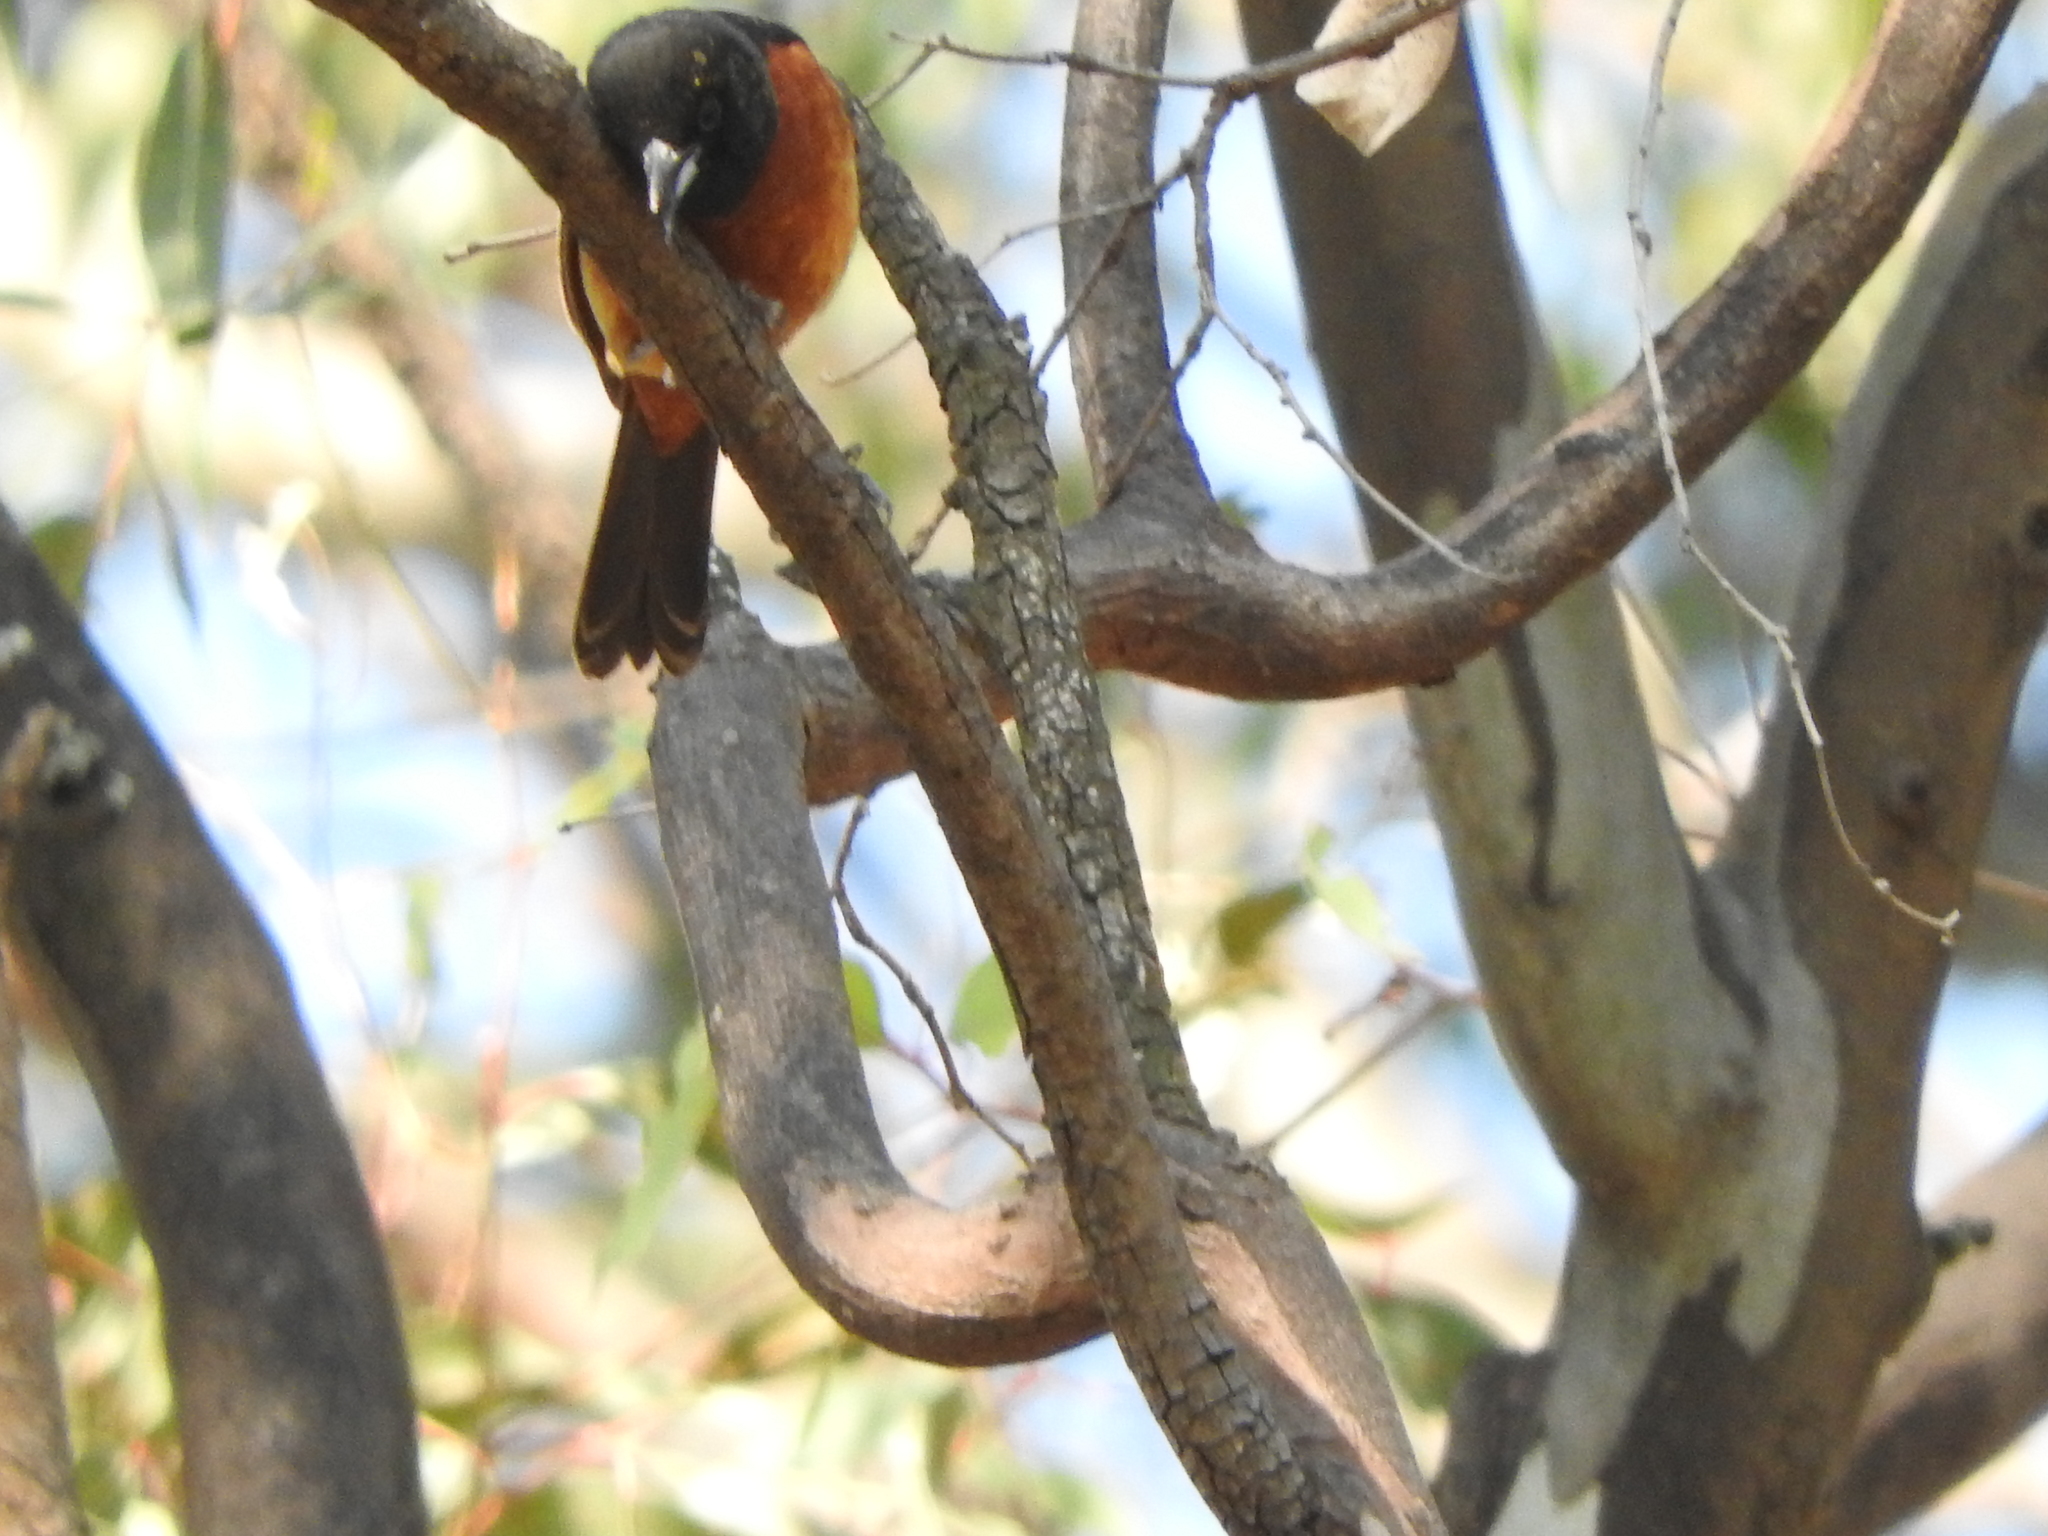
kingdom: Animalia
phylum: Chordata
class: Aves
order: Passeriformes
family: Icteridae
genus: Icterus
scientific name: Icterus spurius
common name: Orchard oriole
